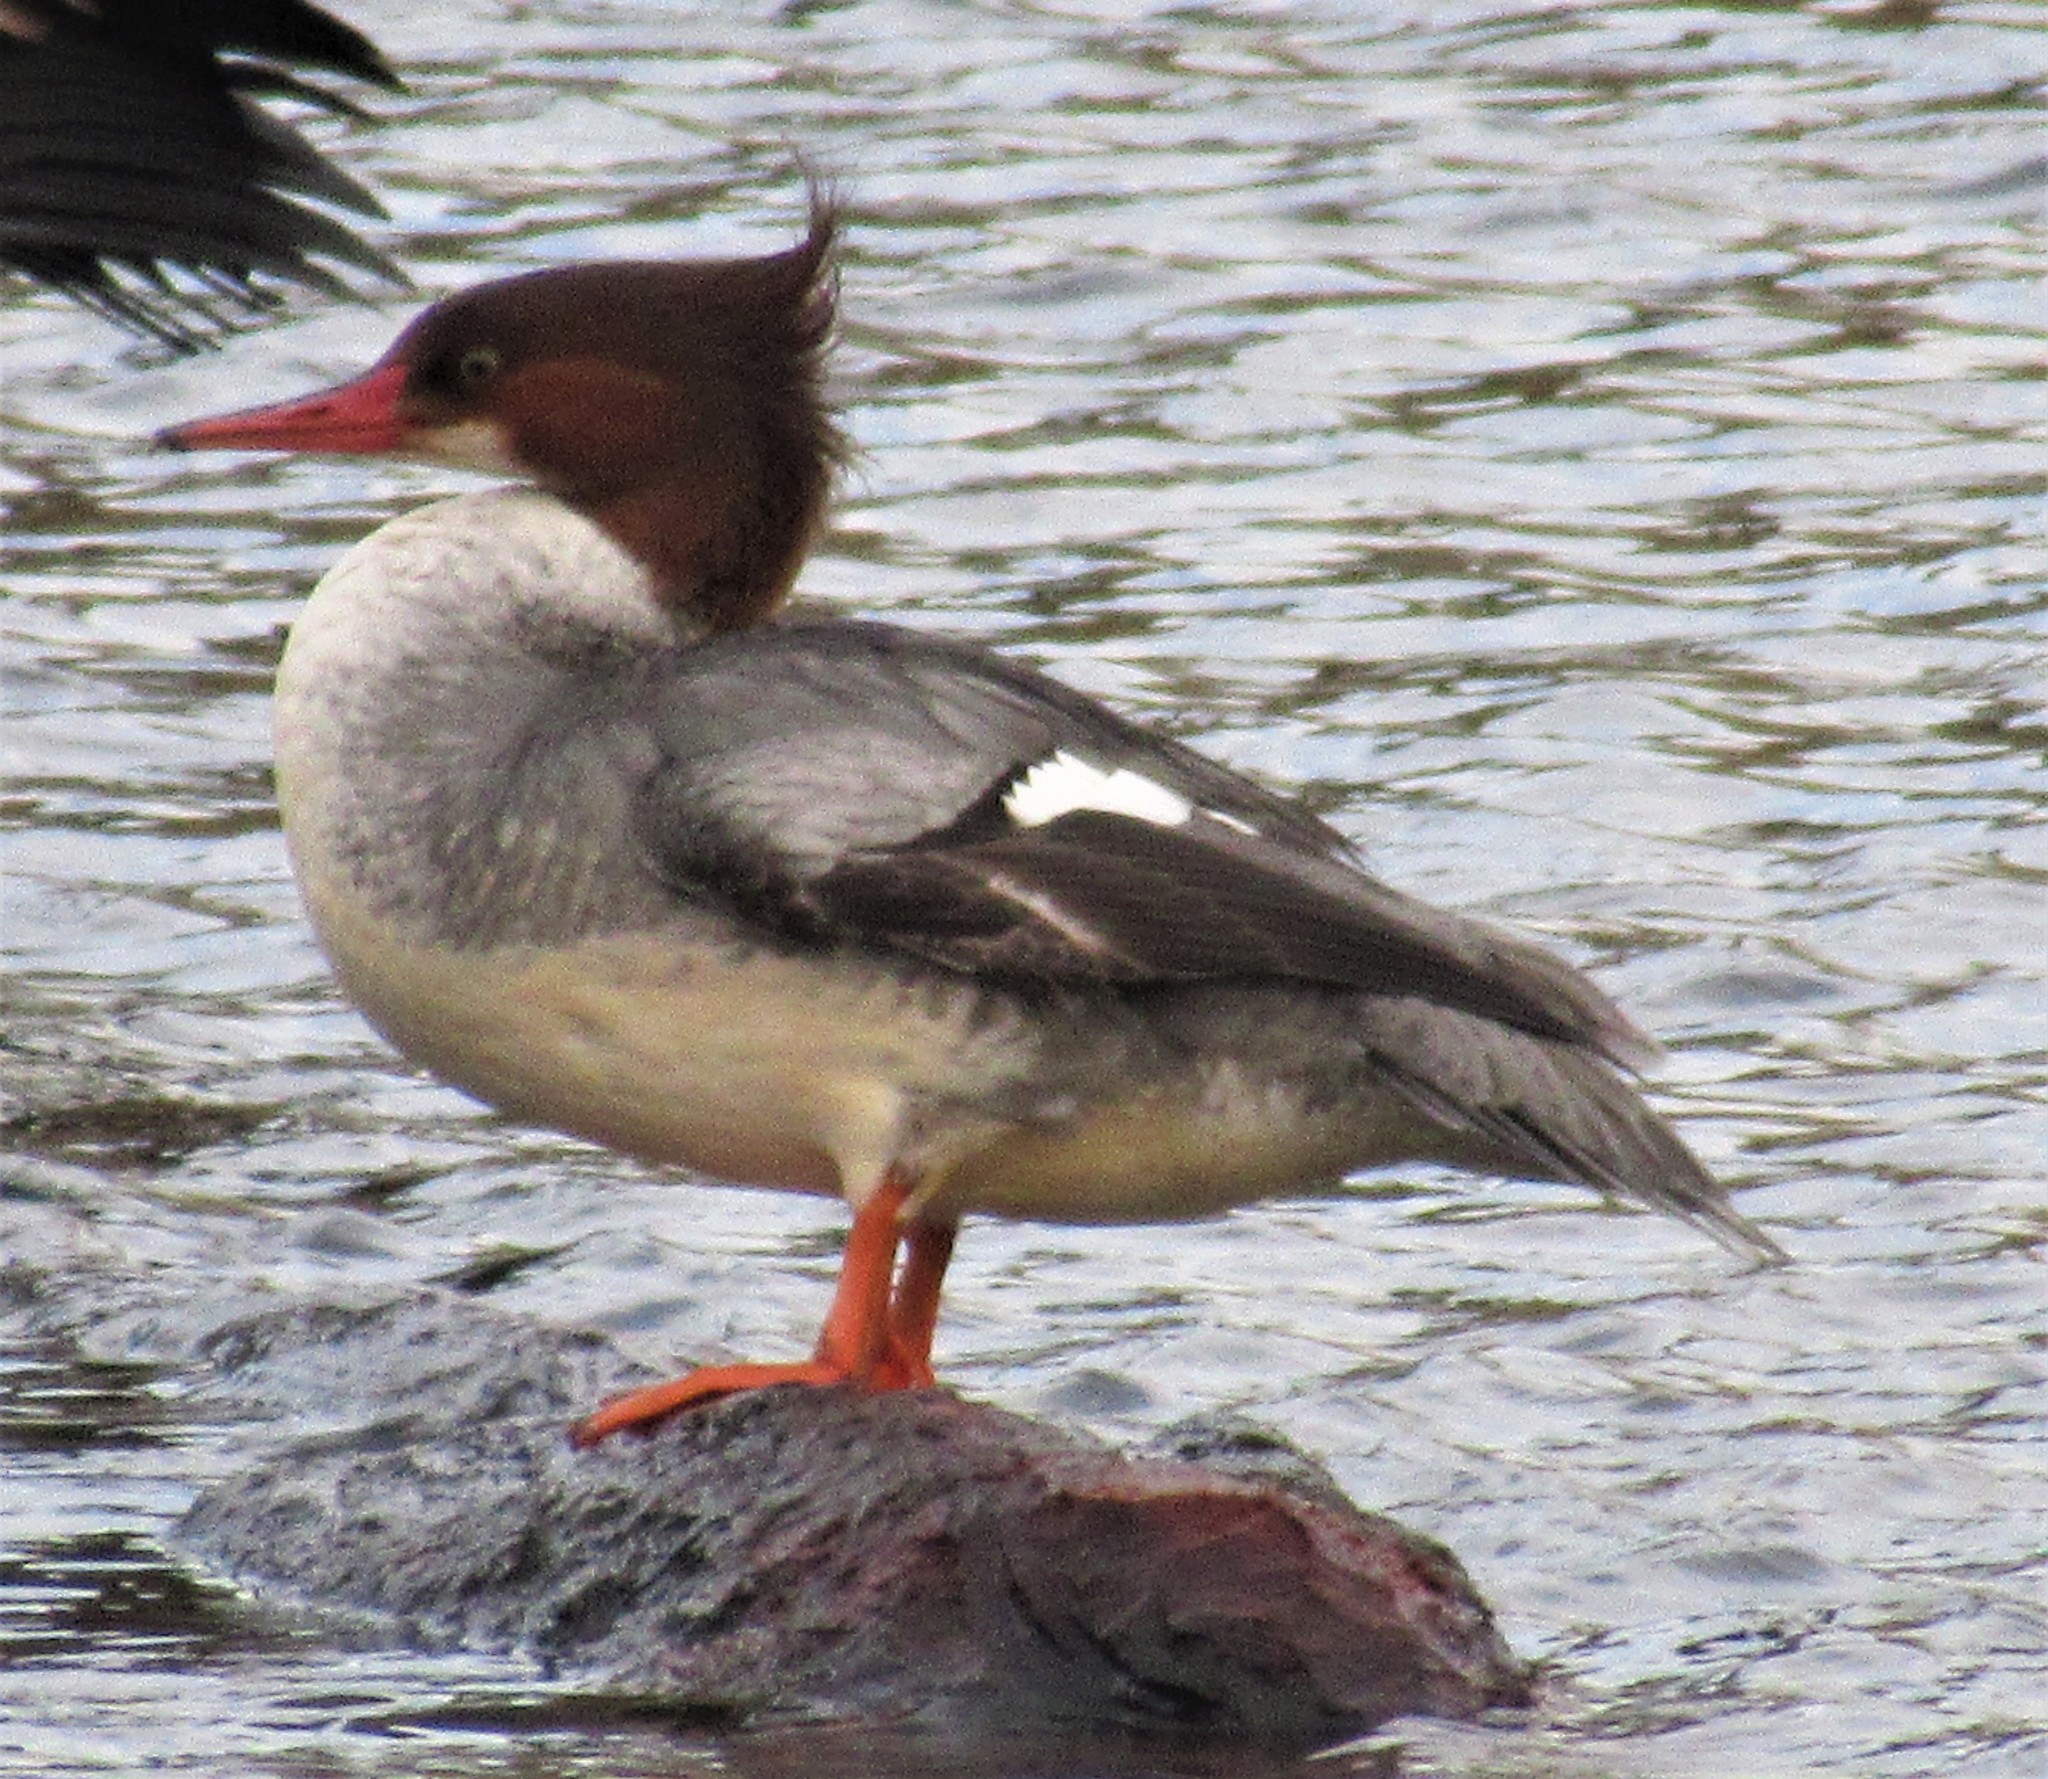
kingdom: Animalia
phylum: Chordata
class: Aves
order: Anseriformes
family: Anatidae
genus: Mergus
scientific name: Mergus merganser
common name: Common merganser
